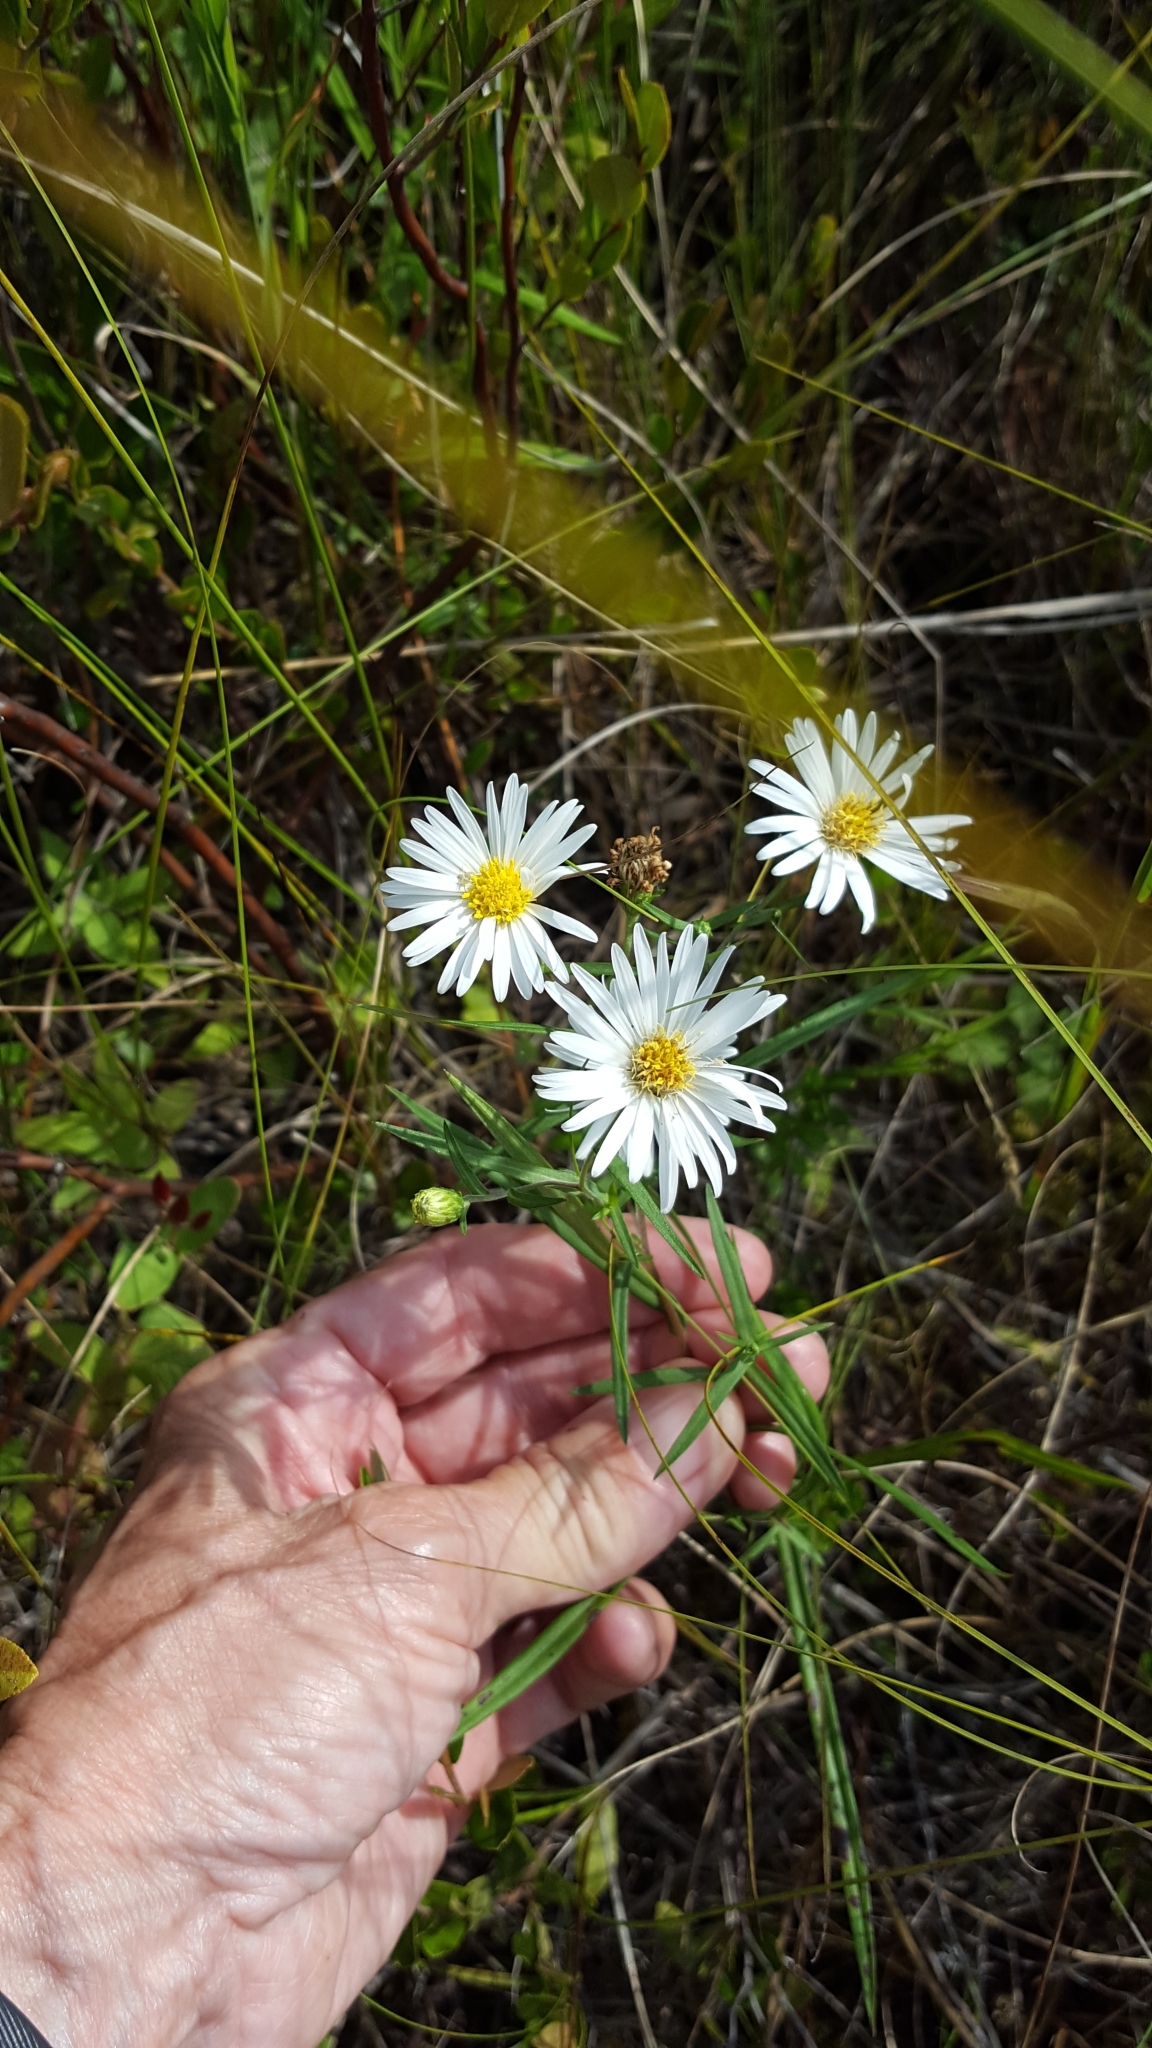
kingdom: Plantae
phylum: Tracheophyta
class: Magnoliopsida
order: Asterales
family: Asteraceae
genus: Symphyotrichum
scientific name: Symphyotrichum boreale
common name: Northern bog aster
